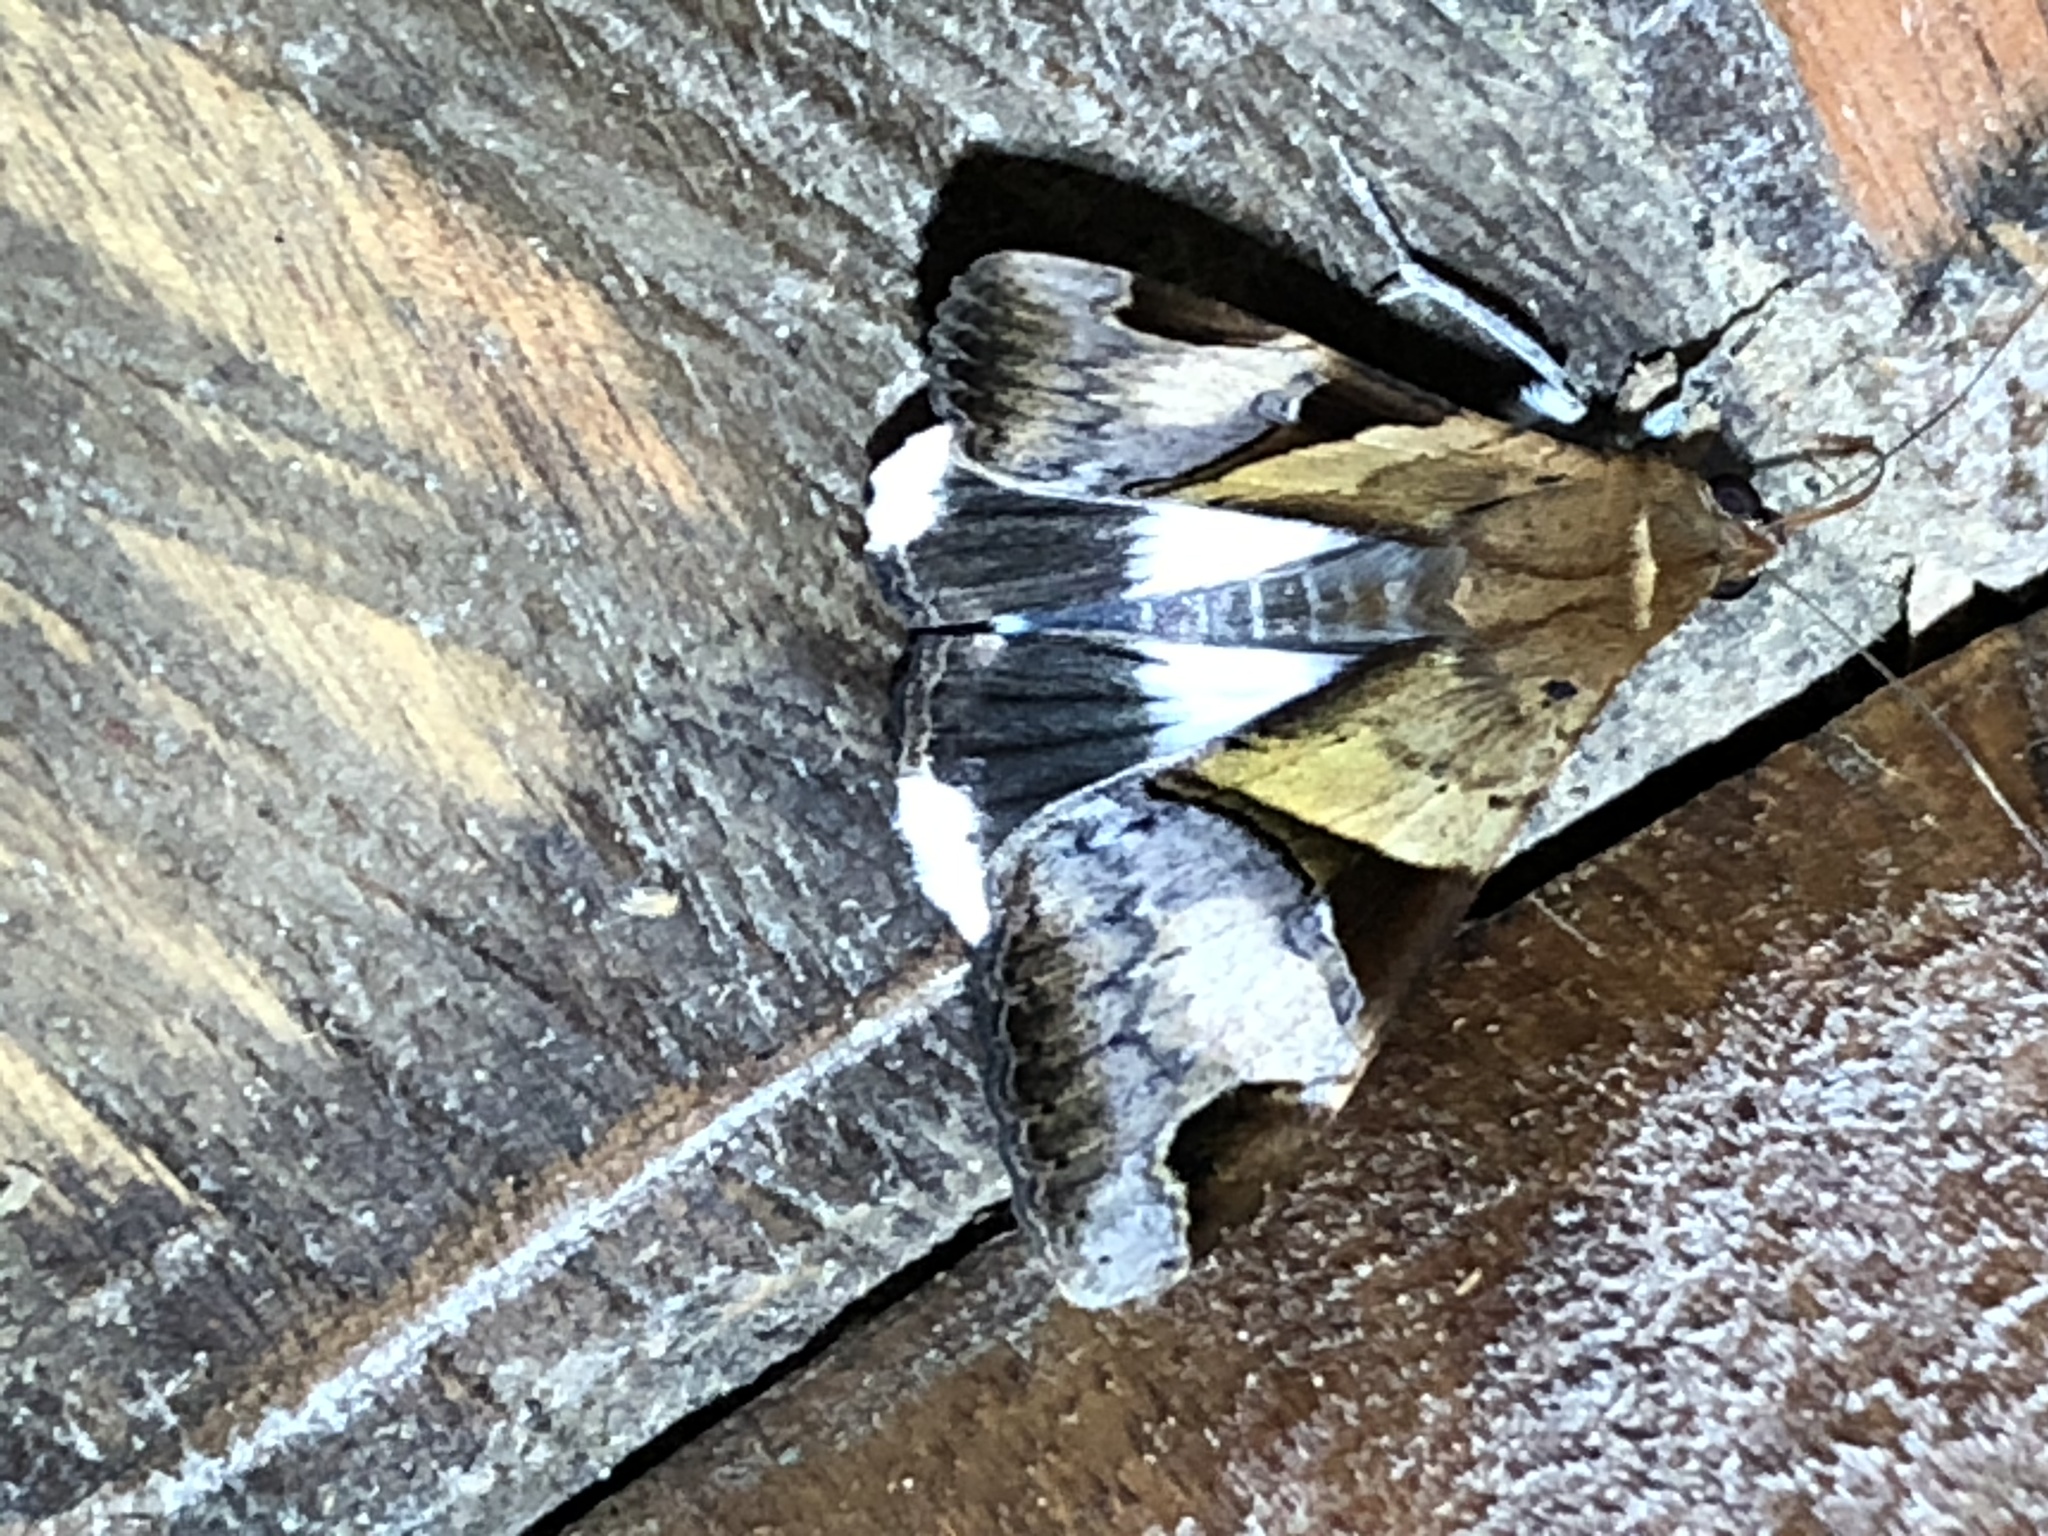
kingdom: Animalia
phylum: Arthropoda
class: Insecta
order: Lepidoptera
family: Erebidae
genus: Melipotis
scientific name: Melipotis fasciolaris
